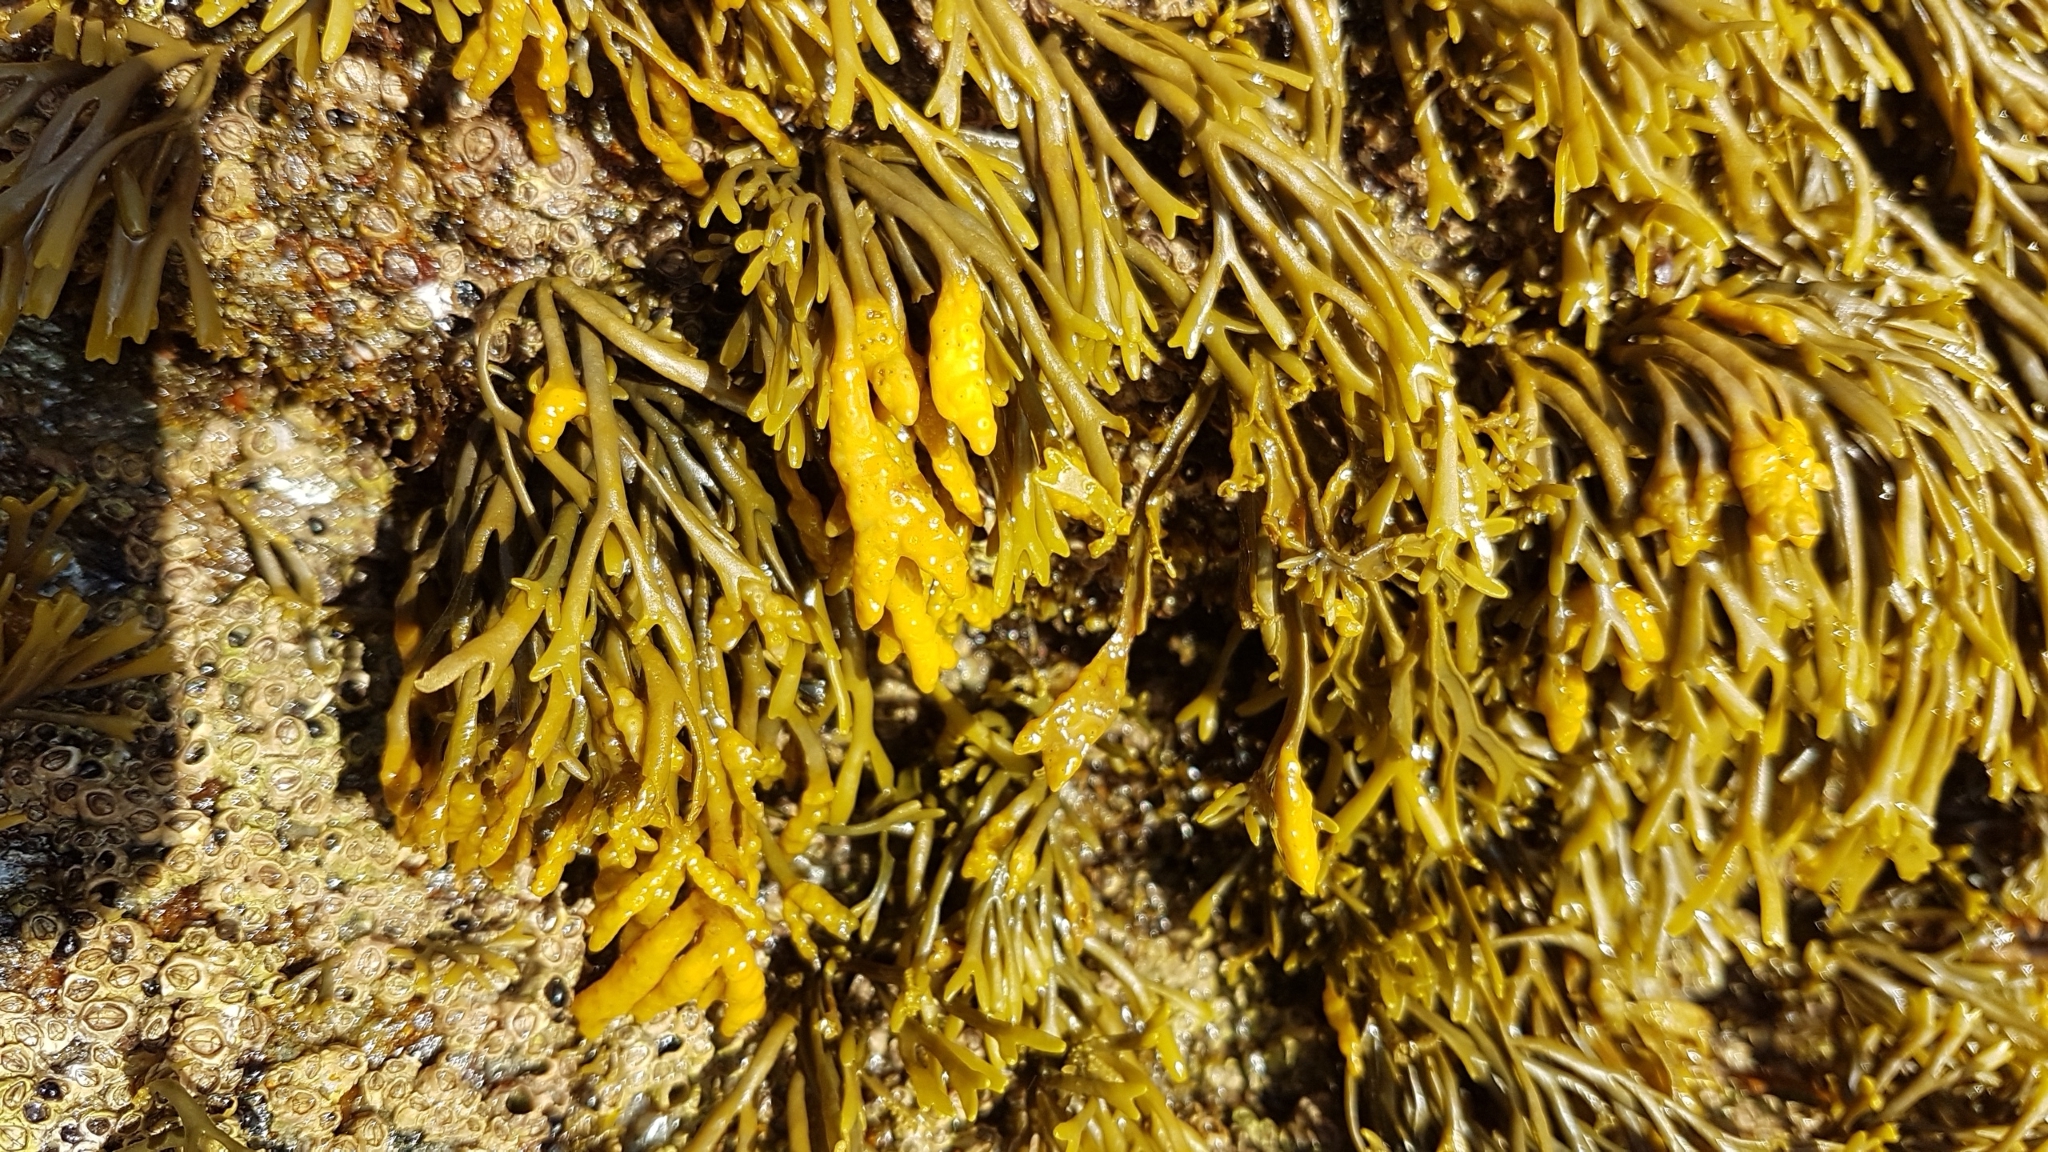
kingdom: Chromista
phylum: Ochrophyta
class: Phaeophyceae
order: Fucales
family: Fucaceae
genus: Pelvetia
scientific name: Pelvetia canaliculata
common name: Channelled wrack
